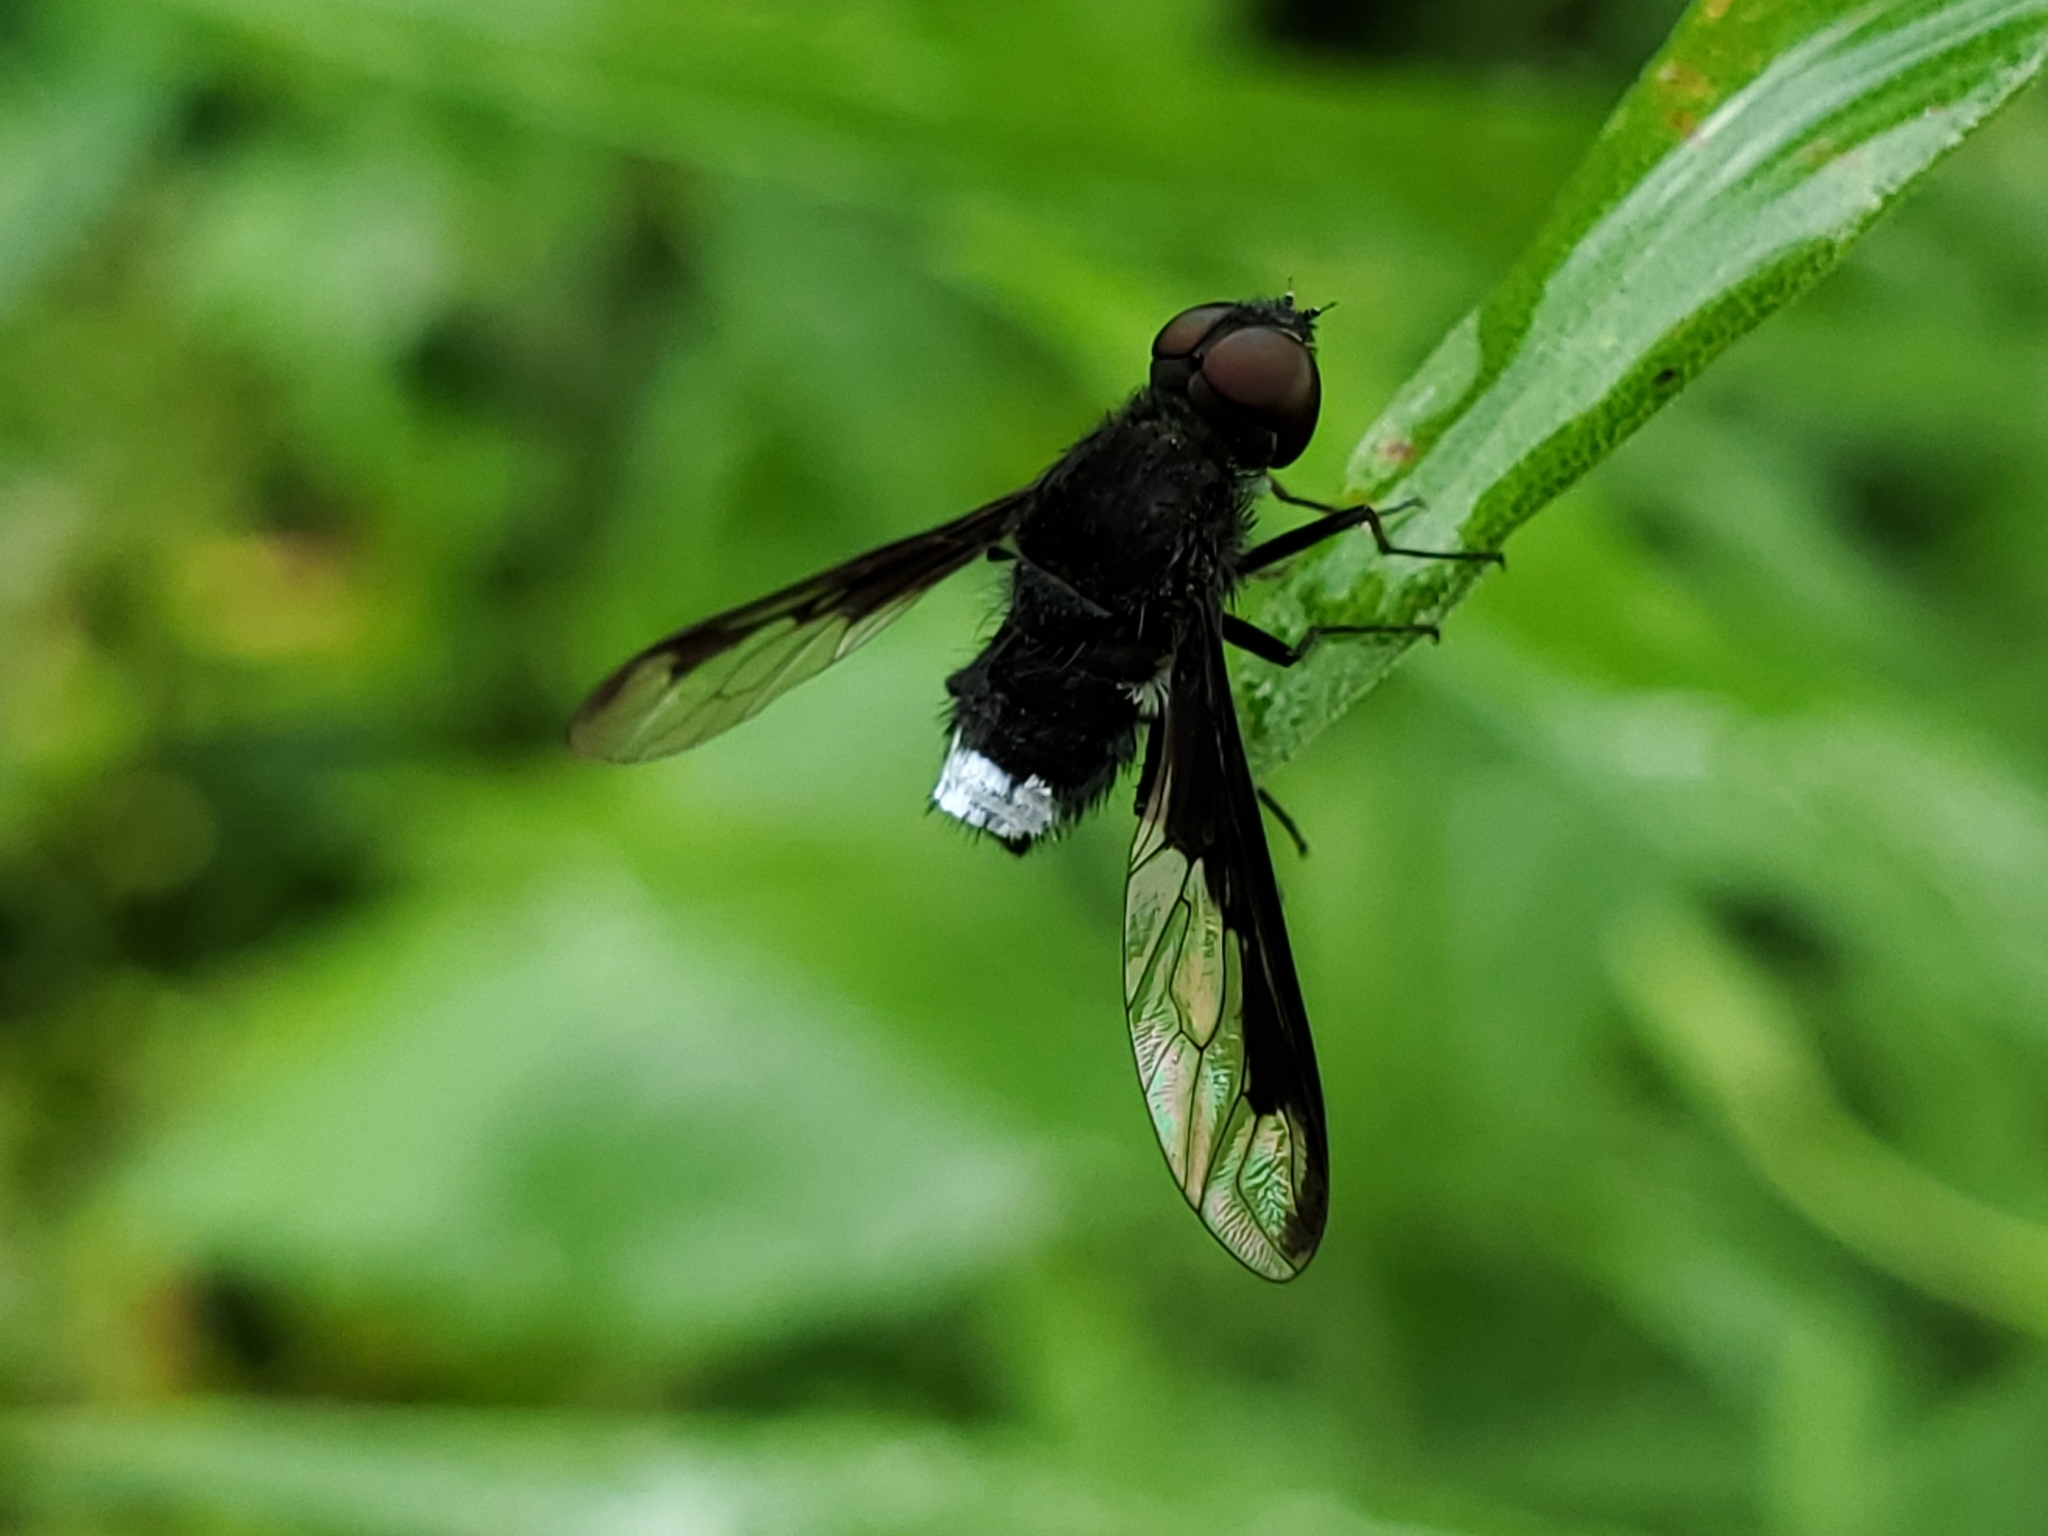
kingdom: Animalia
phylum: Arthropoda
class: Insecta
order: Diptera
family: Bombyliidae
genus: Anthrax
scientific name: Anthrax argyropygus
